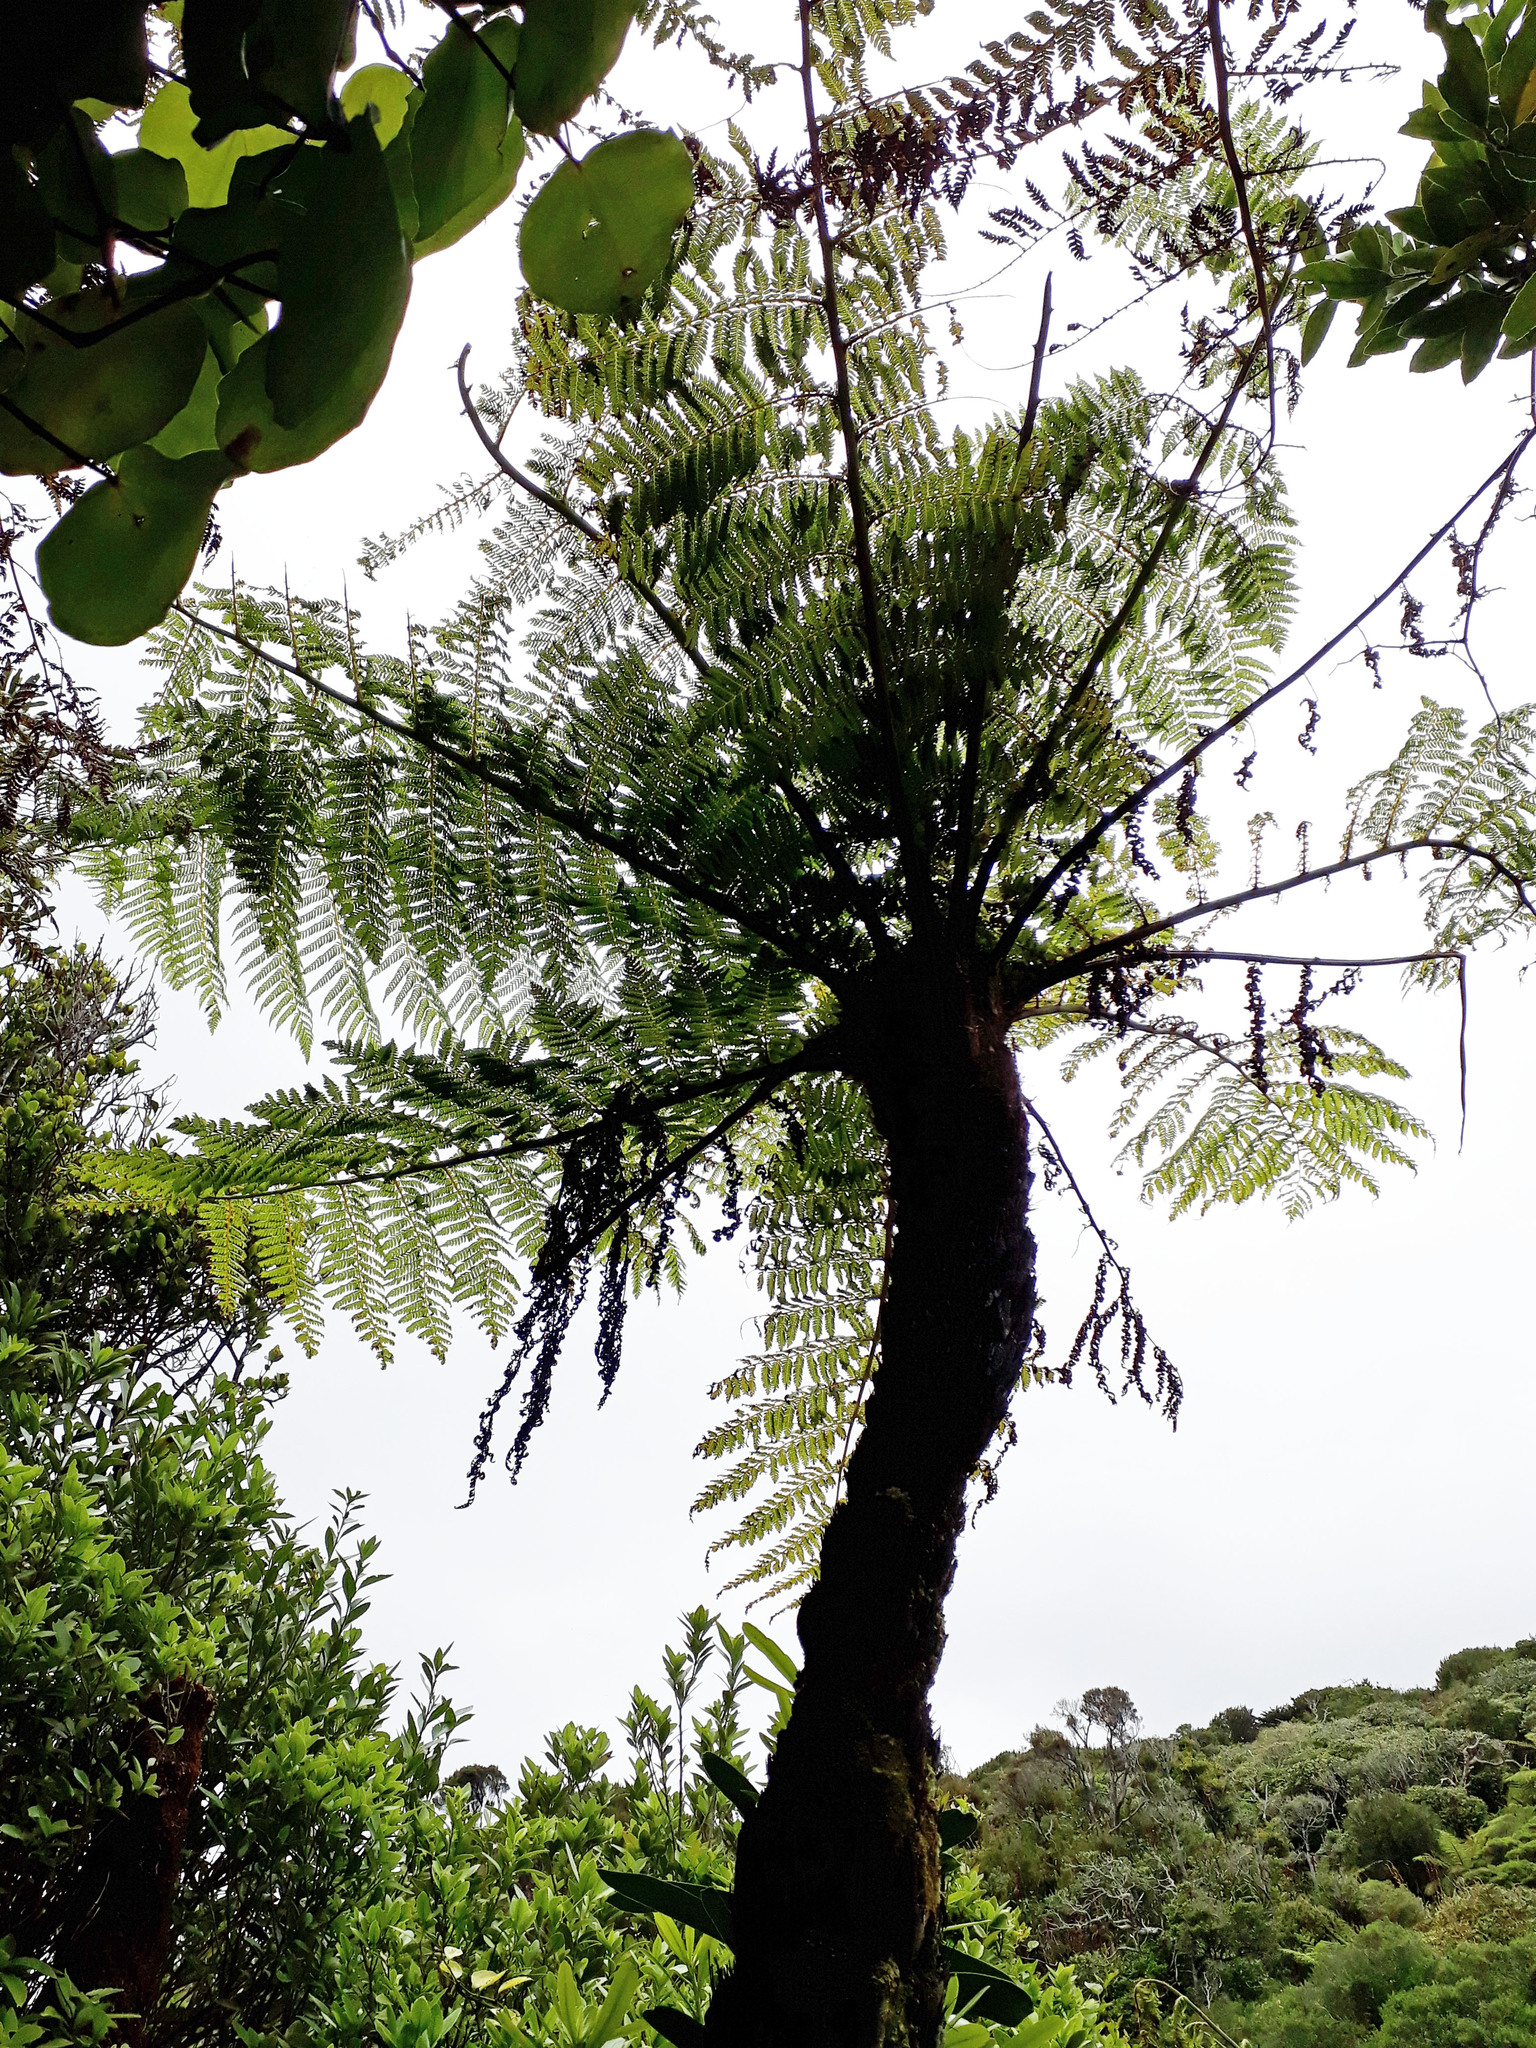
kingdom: Plantae
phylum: Tracheophyta
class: Polypodiopsida
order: Cyatheales
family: Cyatheaceae
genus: Cyathea
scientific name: Cyathea cunninghamii
